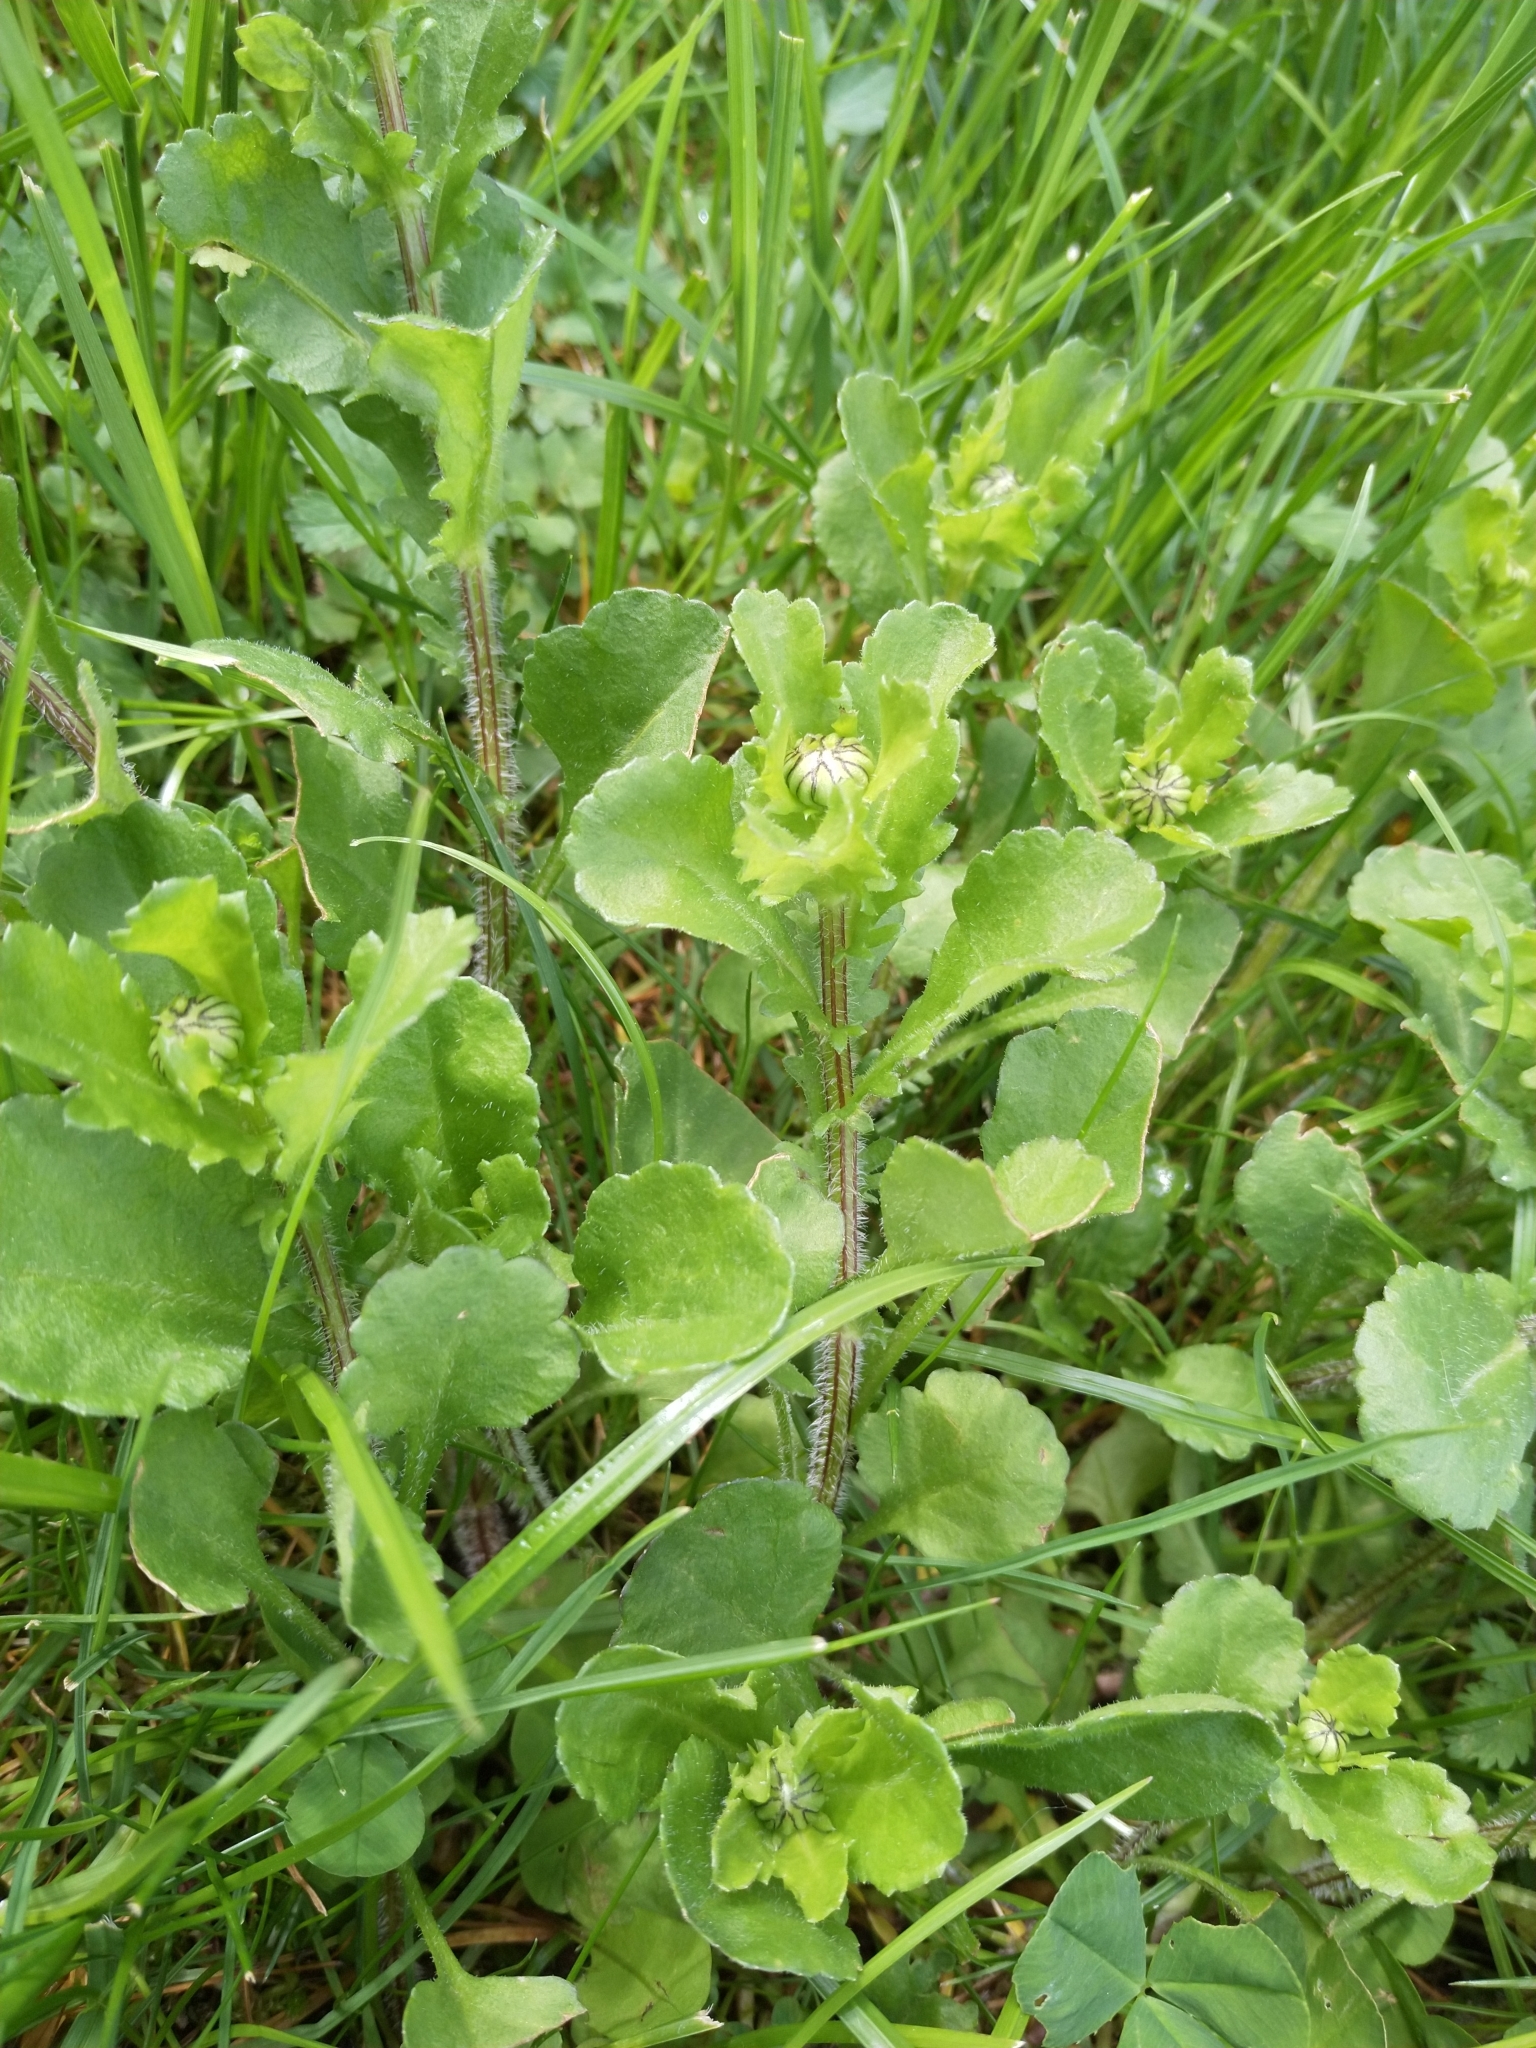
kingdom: Plantae
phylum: Tracheophyta
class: Magnoliopsida
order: Asterales
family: Asteraceae
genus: Leucanthemum
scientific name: Leucanthemum vulgare
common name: Oxeye daisy
